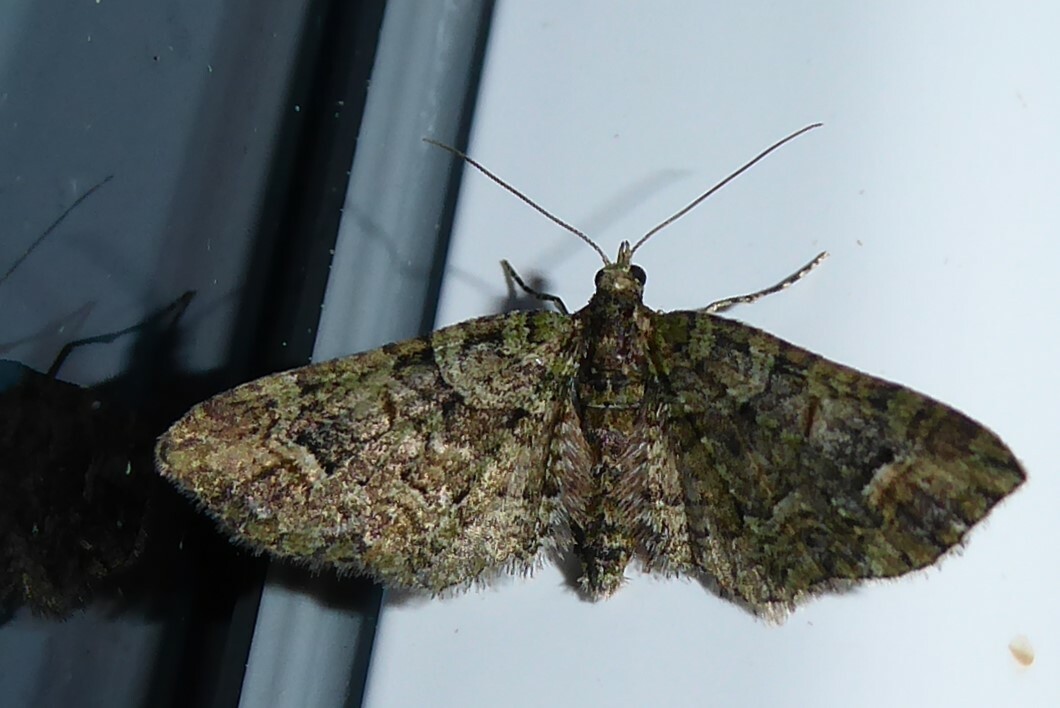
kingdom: Animalia
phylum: Arthropoda
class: Insecta
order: Lepidoptera
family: Geometridae
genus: Idaea
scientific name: Idaea mutanda
